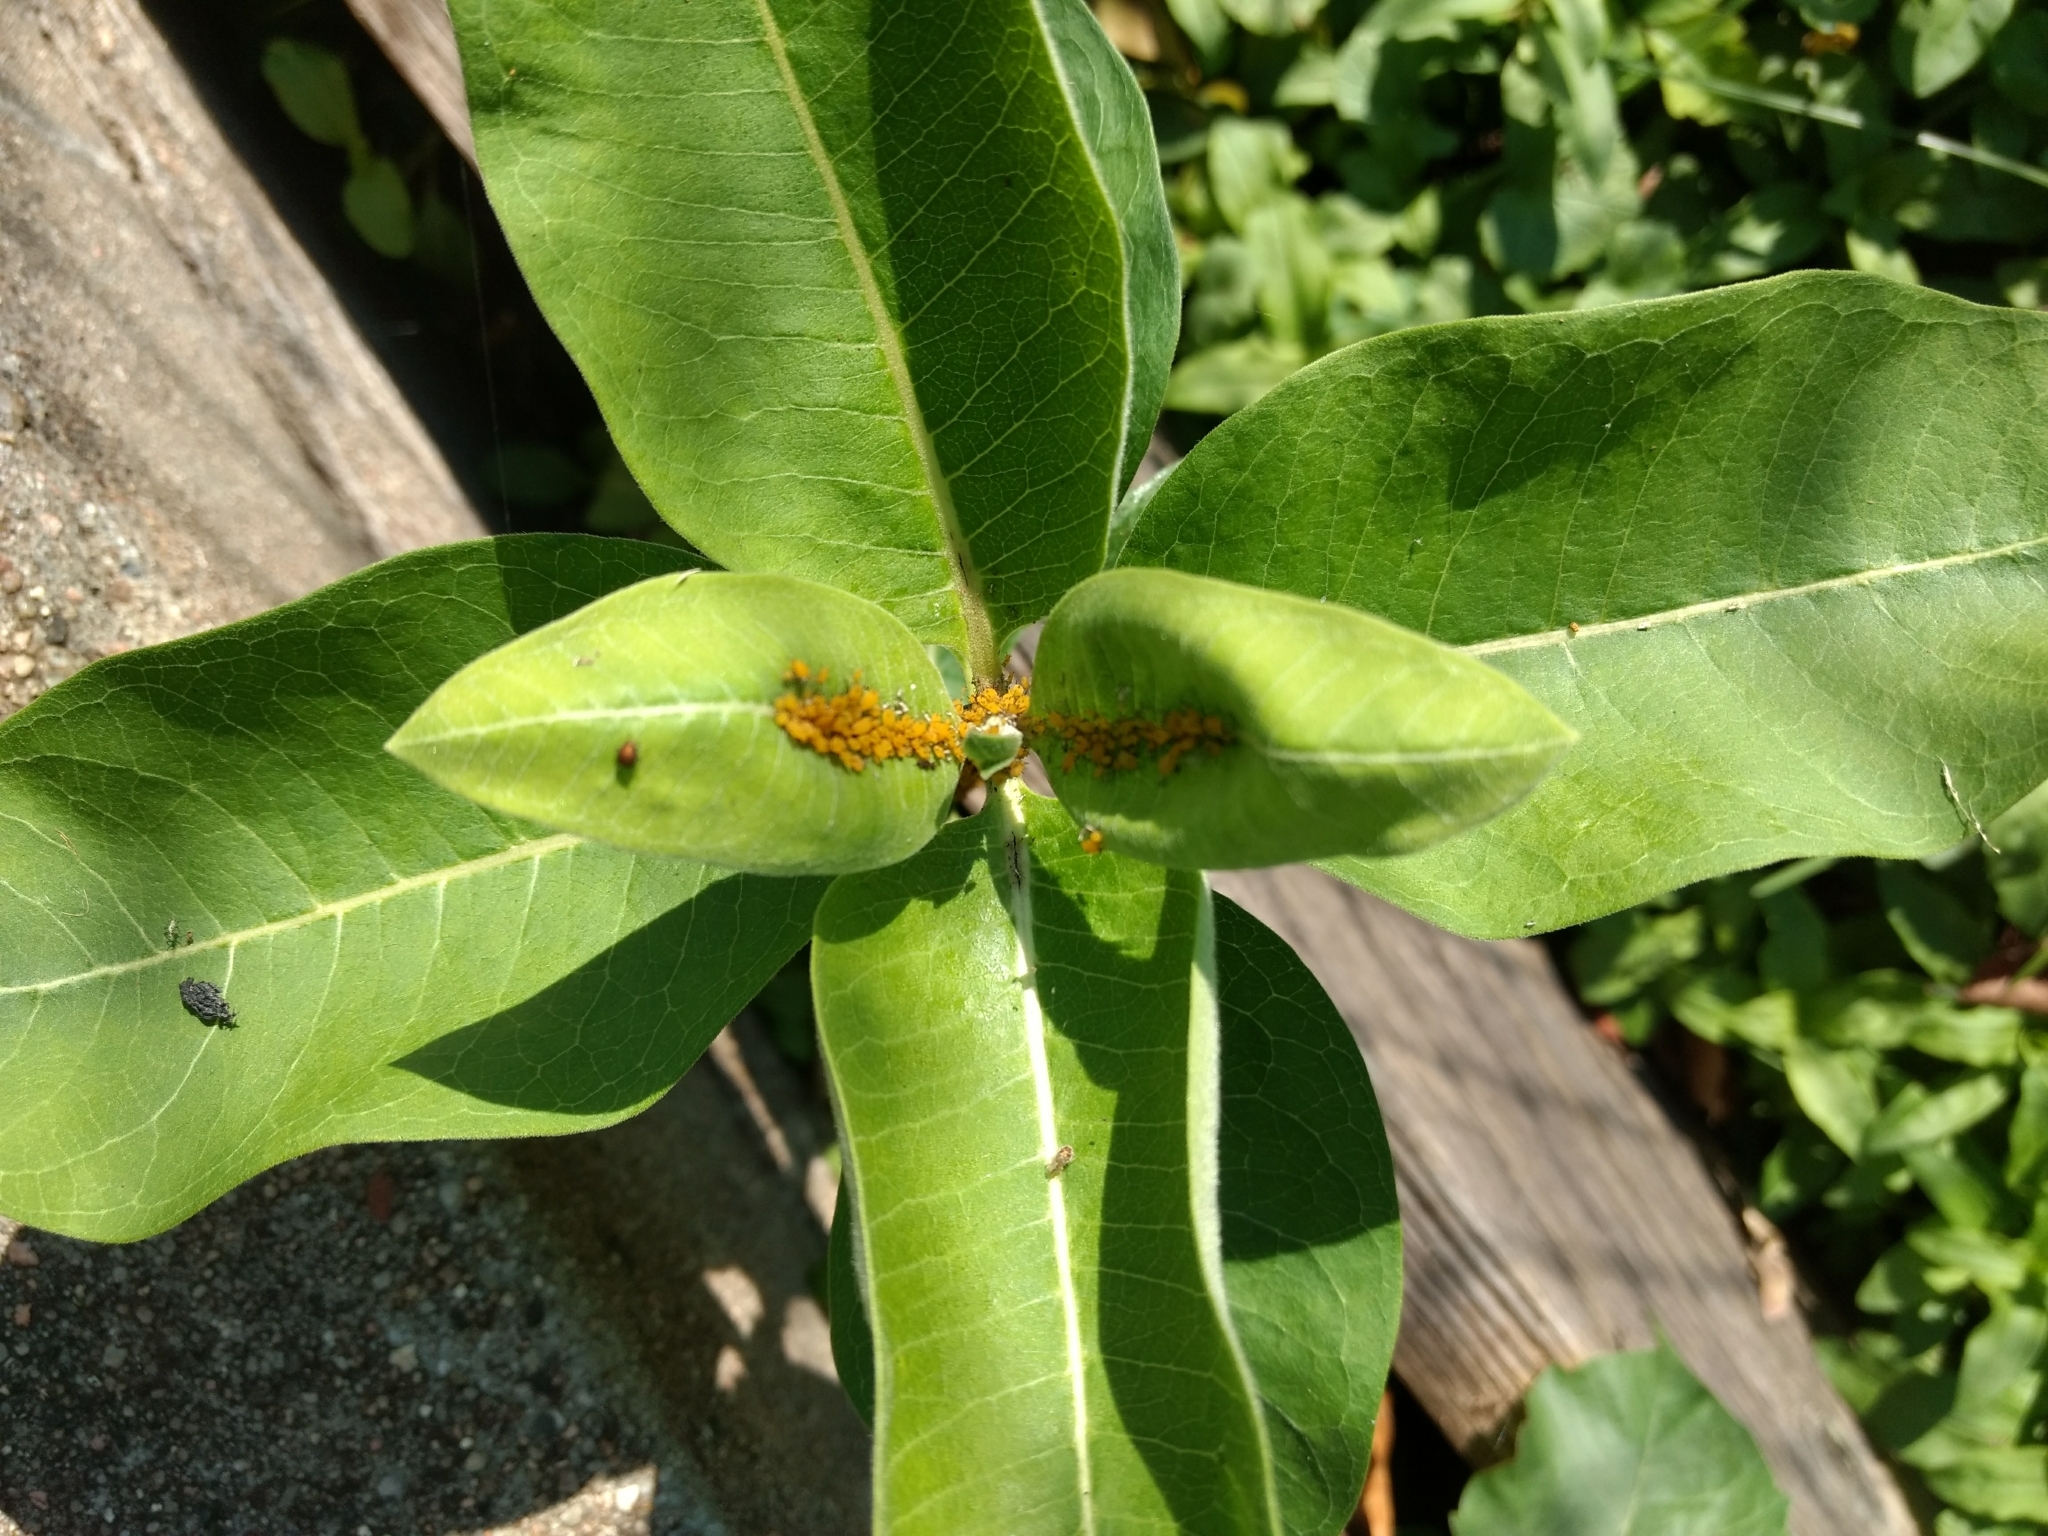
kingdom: Animalia
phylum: Arthropoda
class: Insecta
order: Hemiptera
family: Aphididae
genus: Aphis
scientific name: Aphis nerii
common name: Oleander aphid
